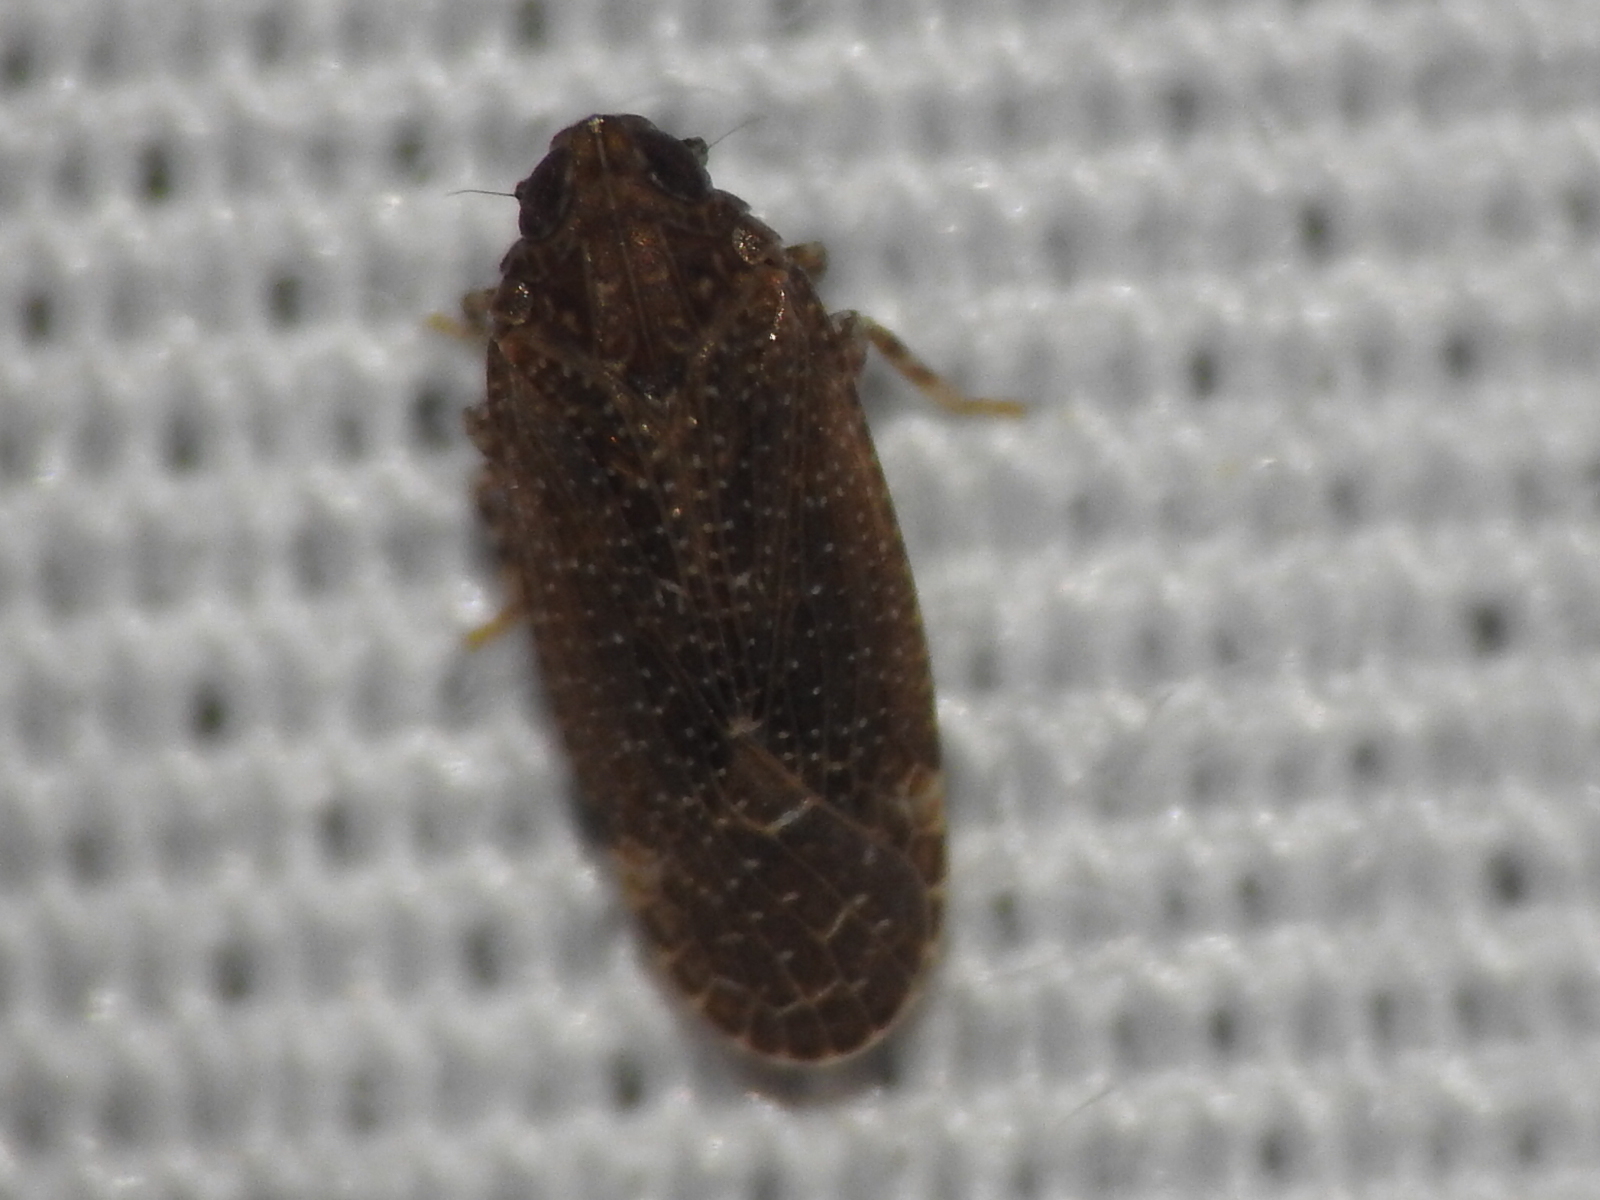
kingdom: Animalia
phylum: Arthropoda
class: Insecta
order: Hemiptera
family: Achilidae
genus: Opsiplanon
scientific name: Opsiplanon luellus
